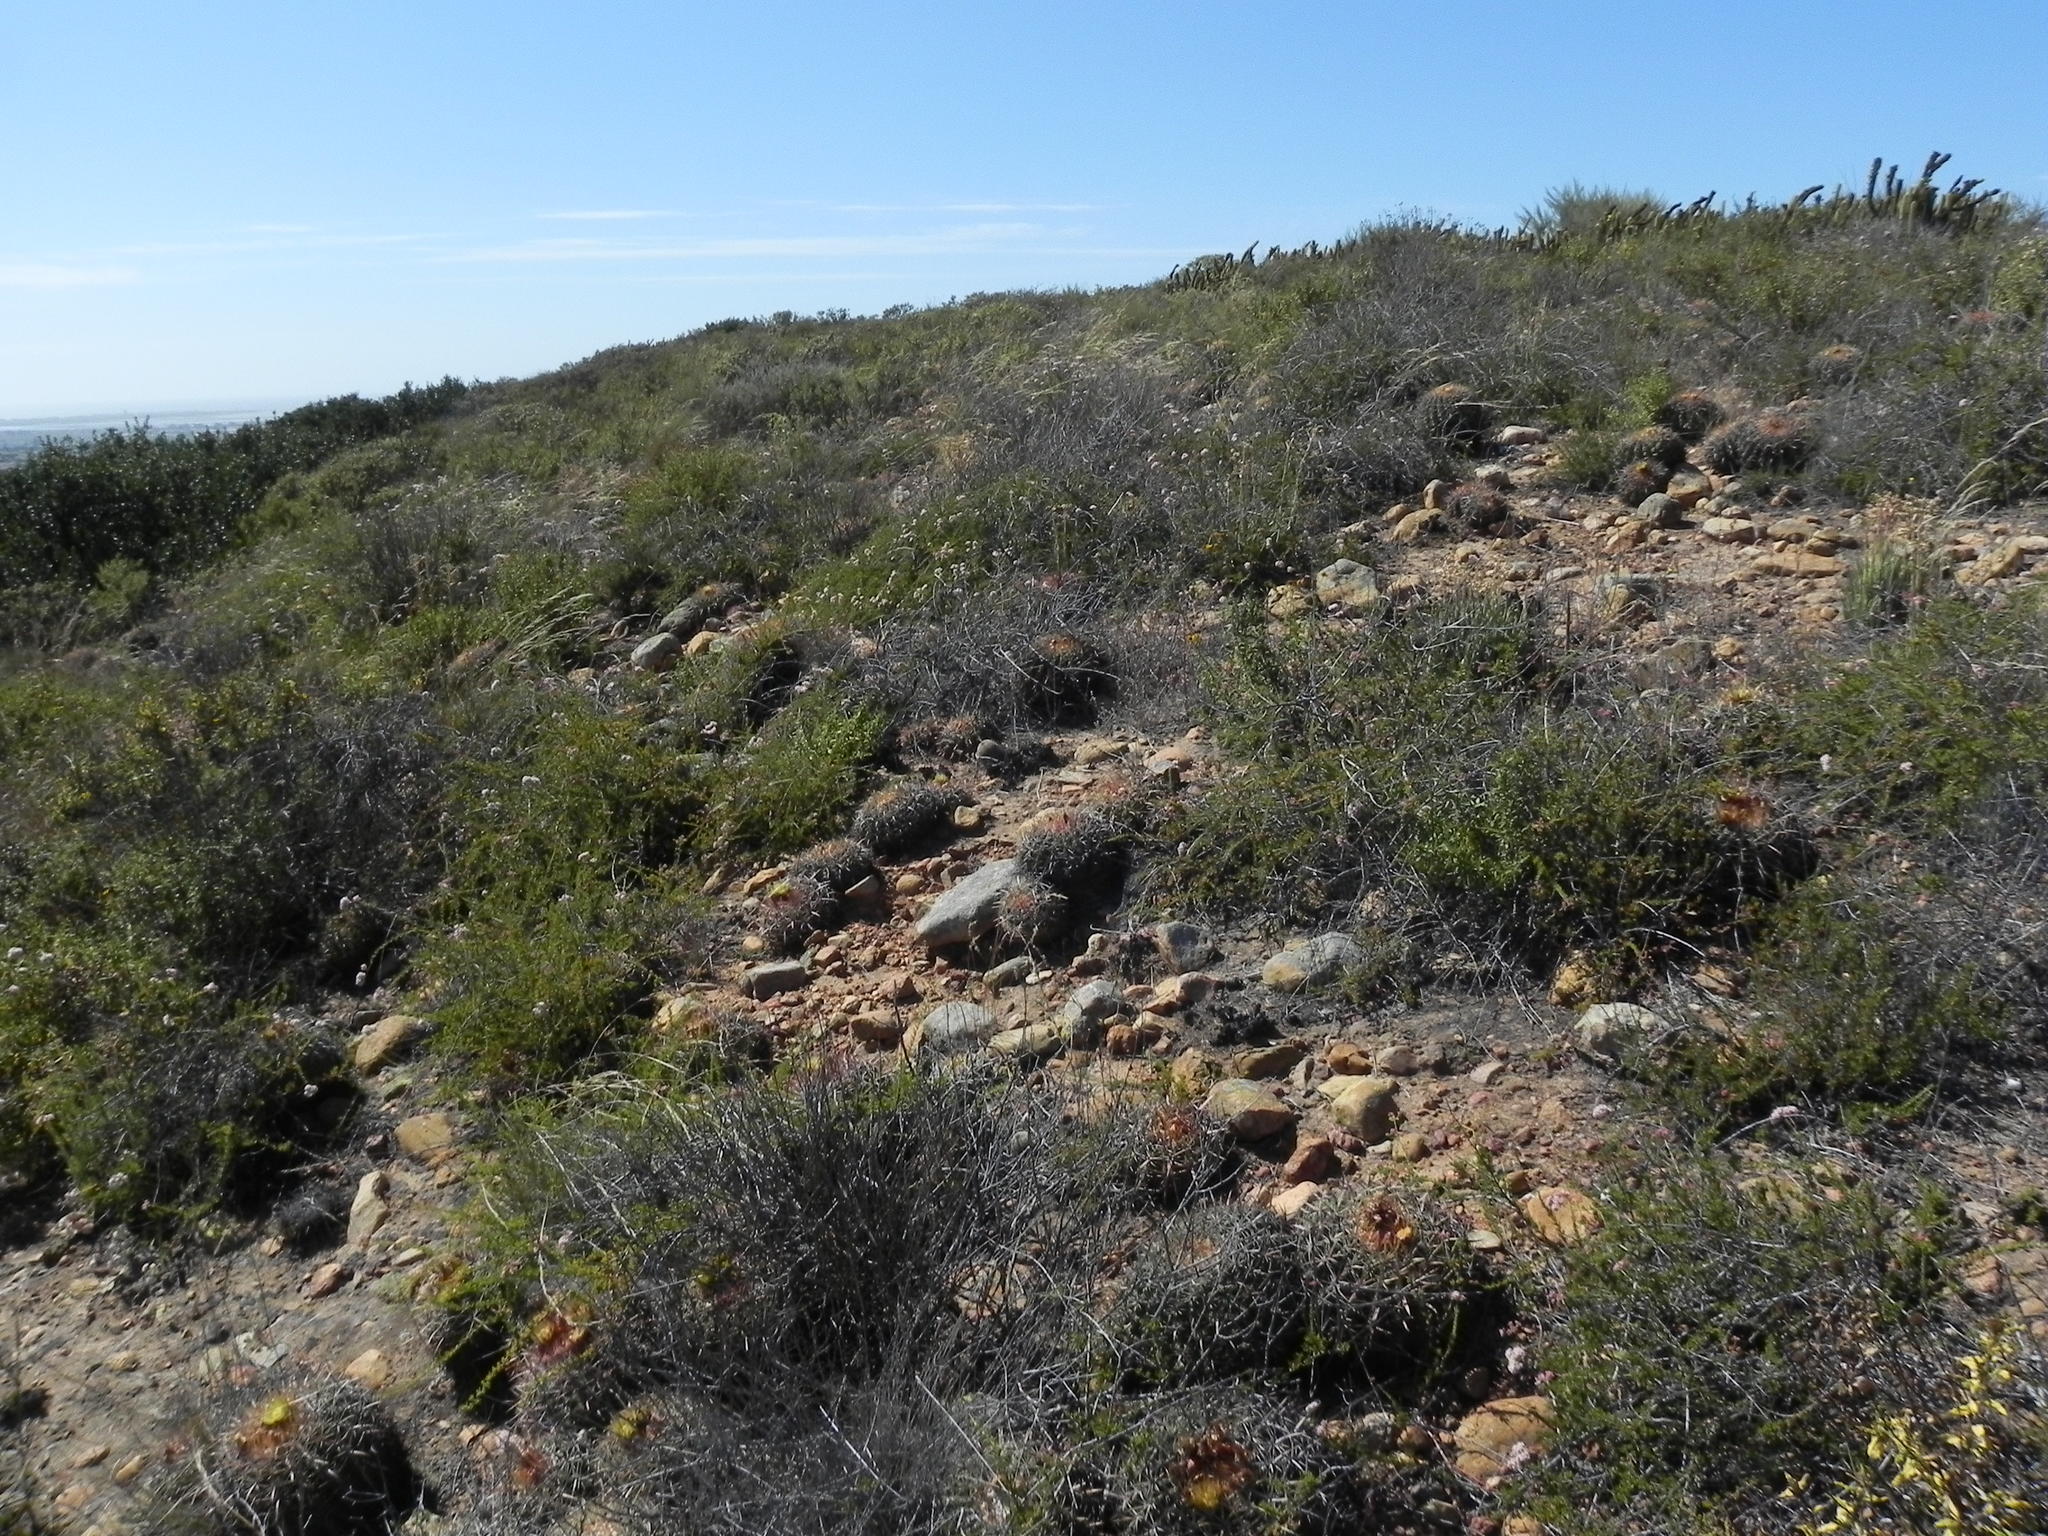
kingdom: Plantae
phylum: Tracheophyta
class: Magnoliopsida
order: Caryophyllales
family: Cactaceae
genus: Ferocactus
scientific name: Ferocactus viridescens
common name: San diego barrel cactus
